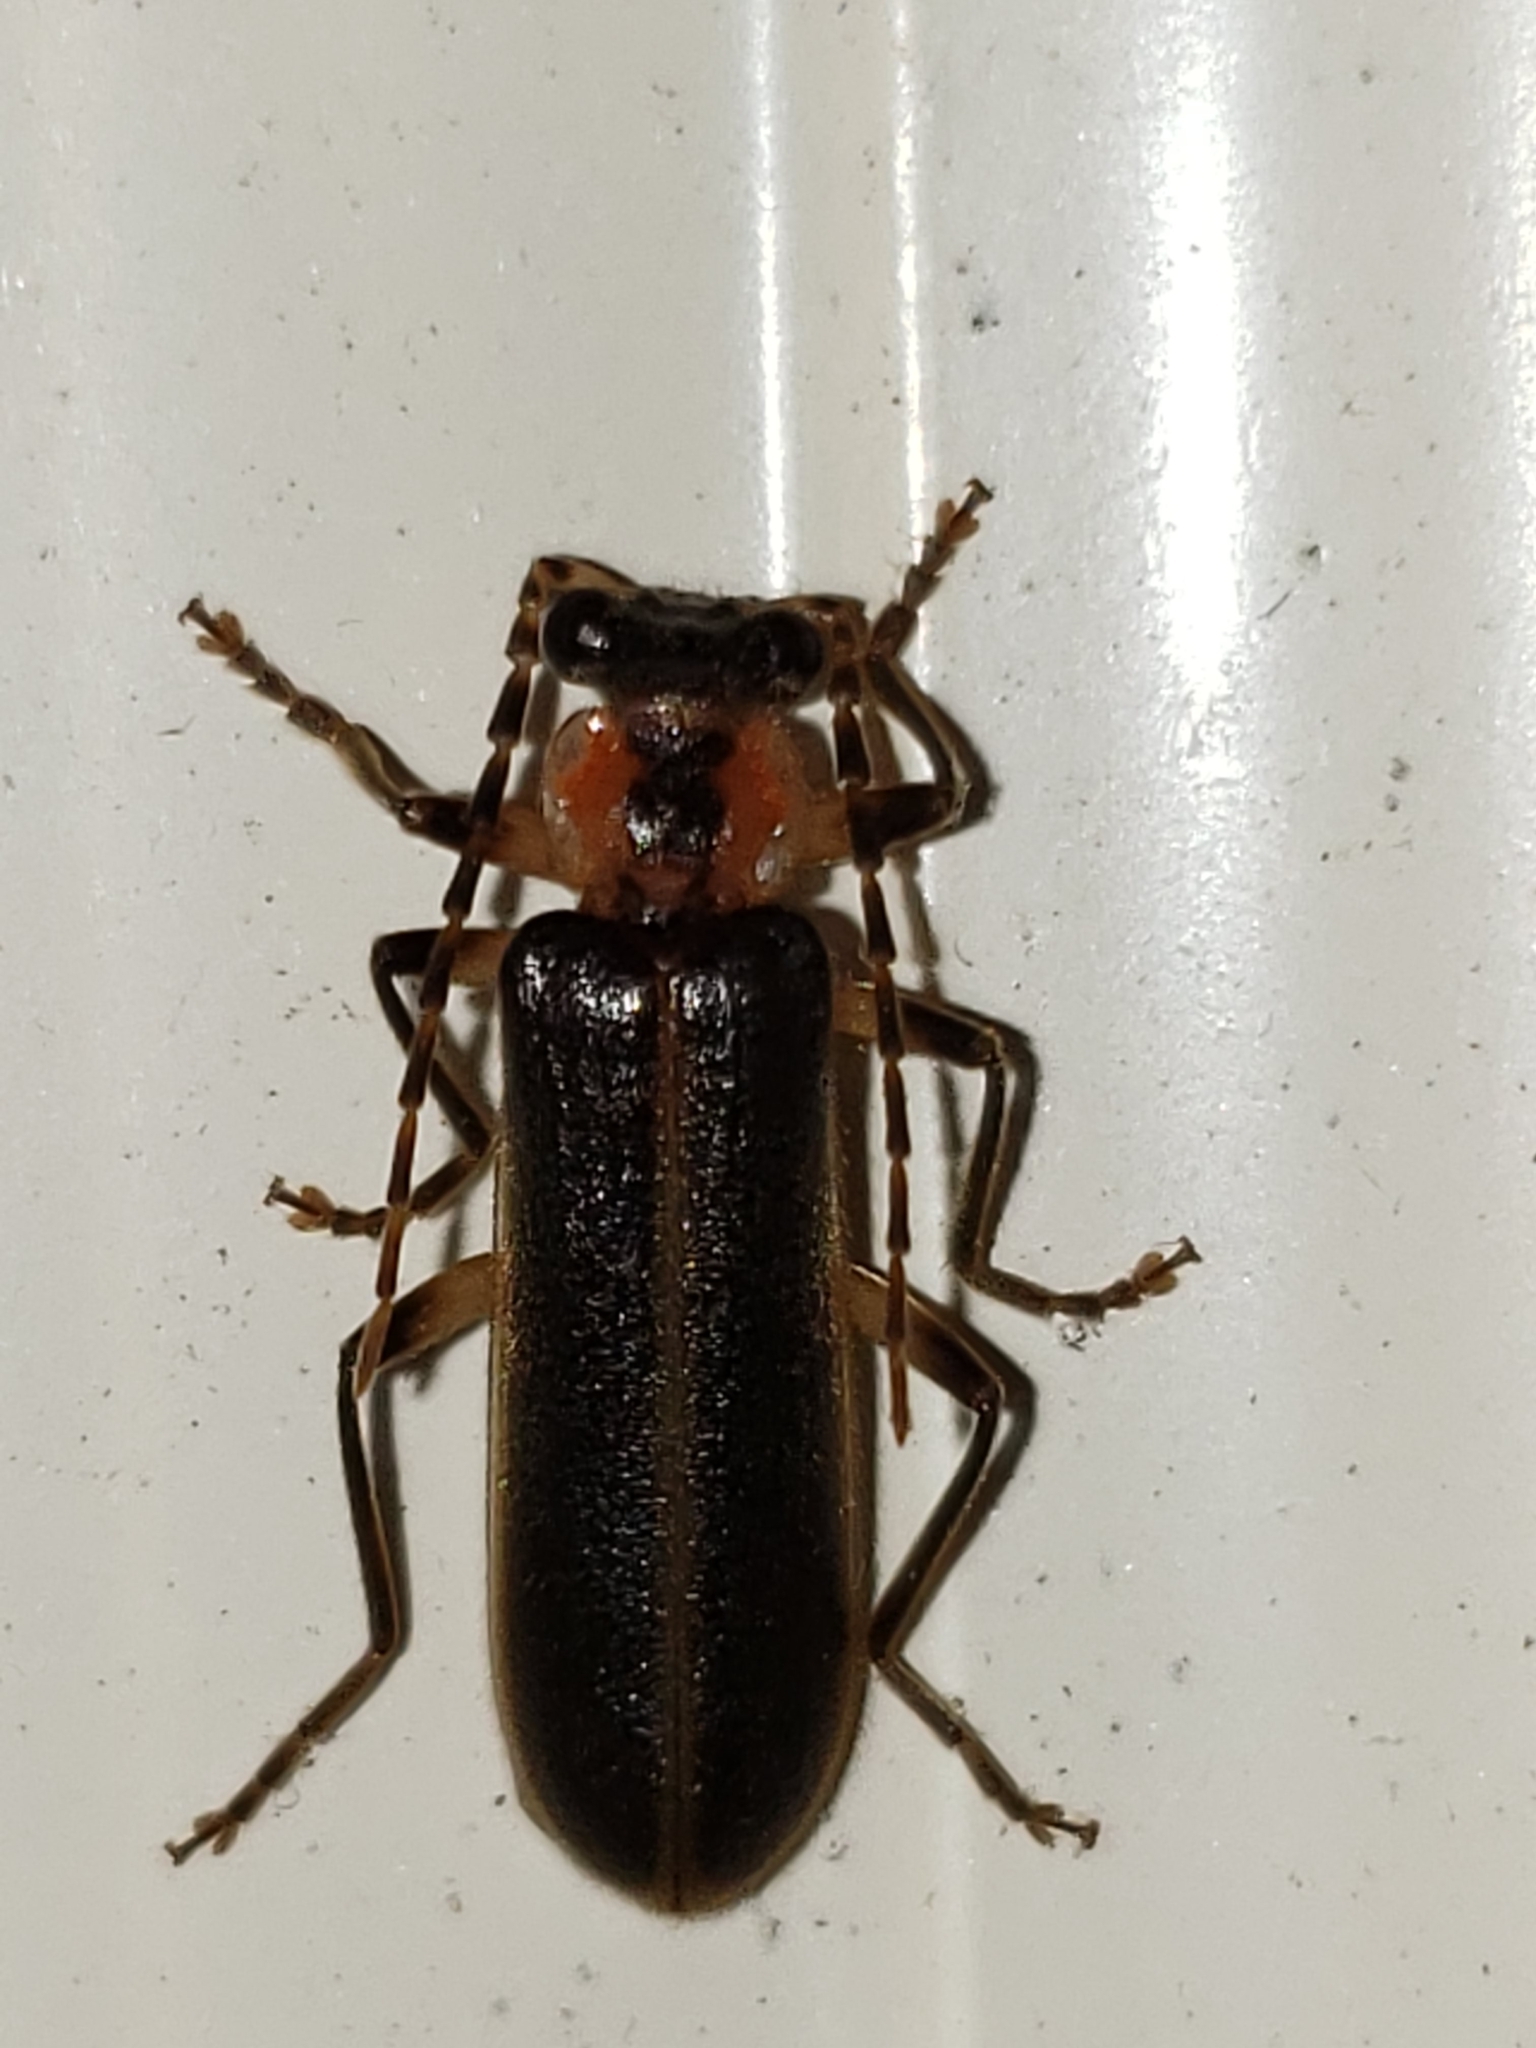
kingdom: Animalia
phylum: Arthropoda
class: Insecta
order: Coleoptera
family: Cantharidae
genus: Podabrus
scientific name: Podabrus basilaris
